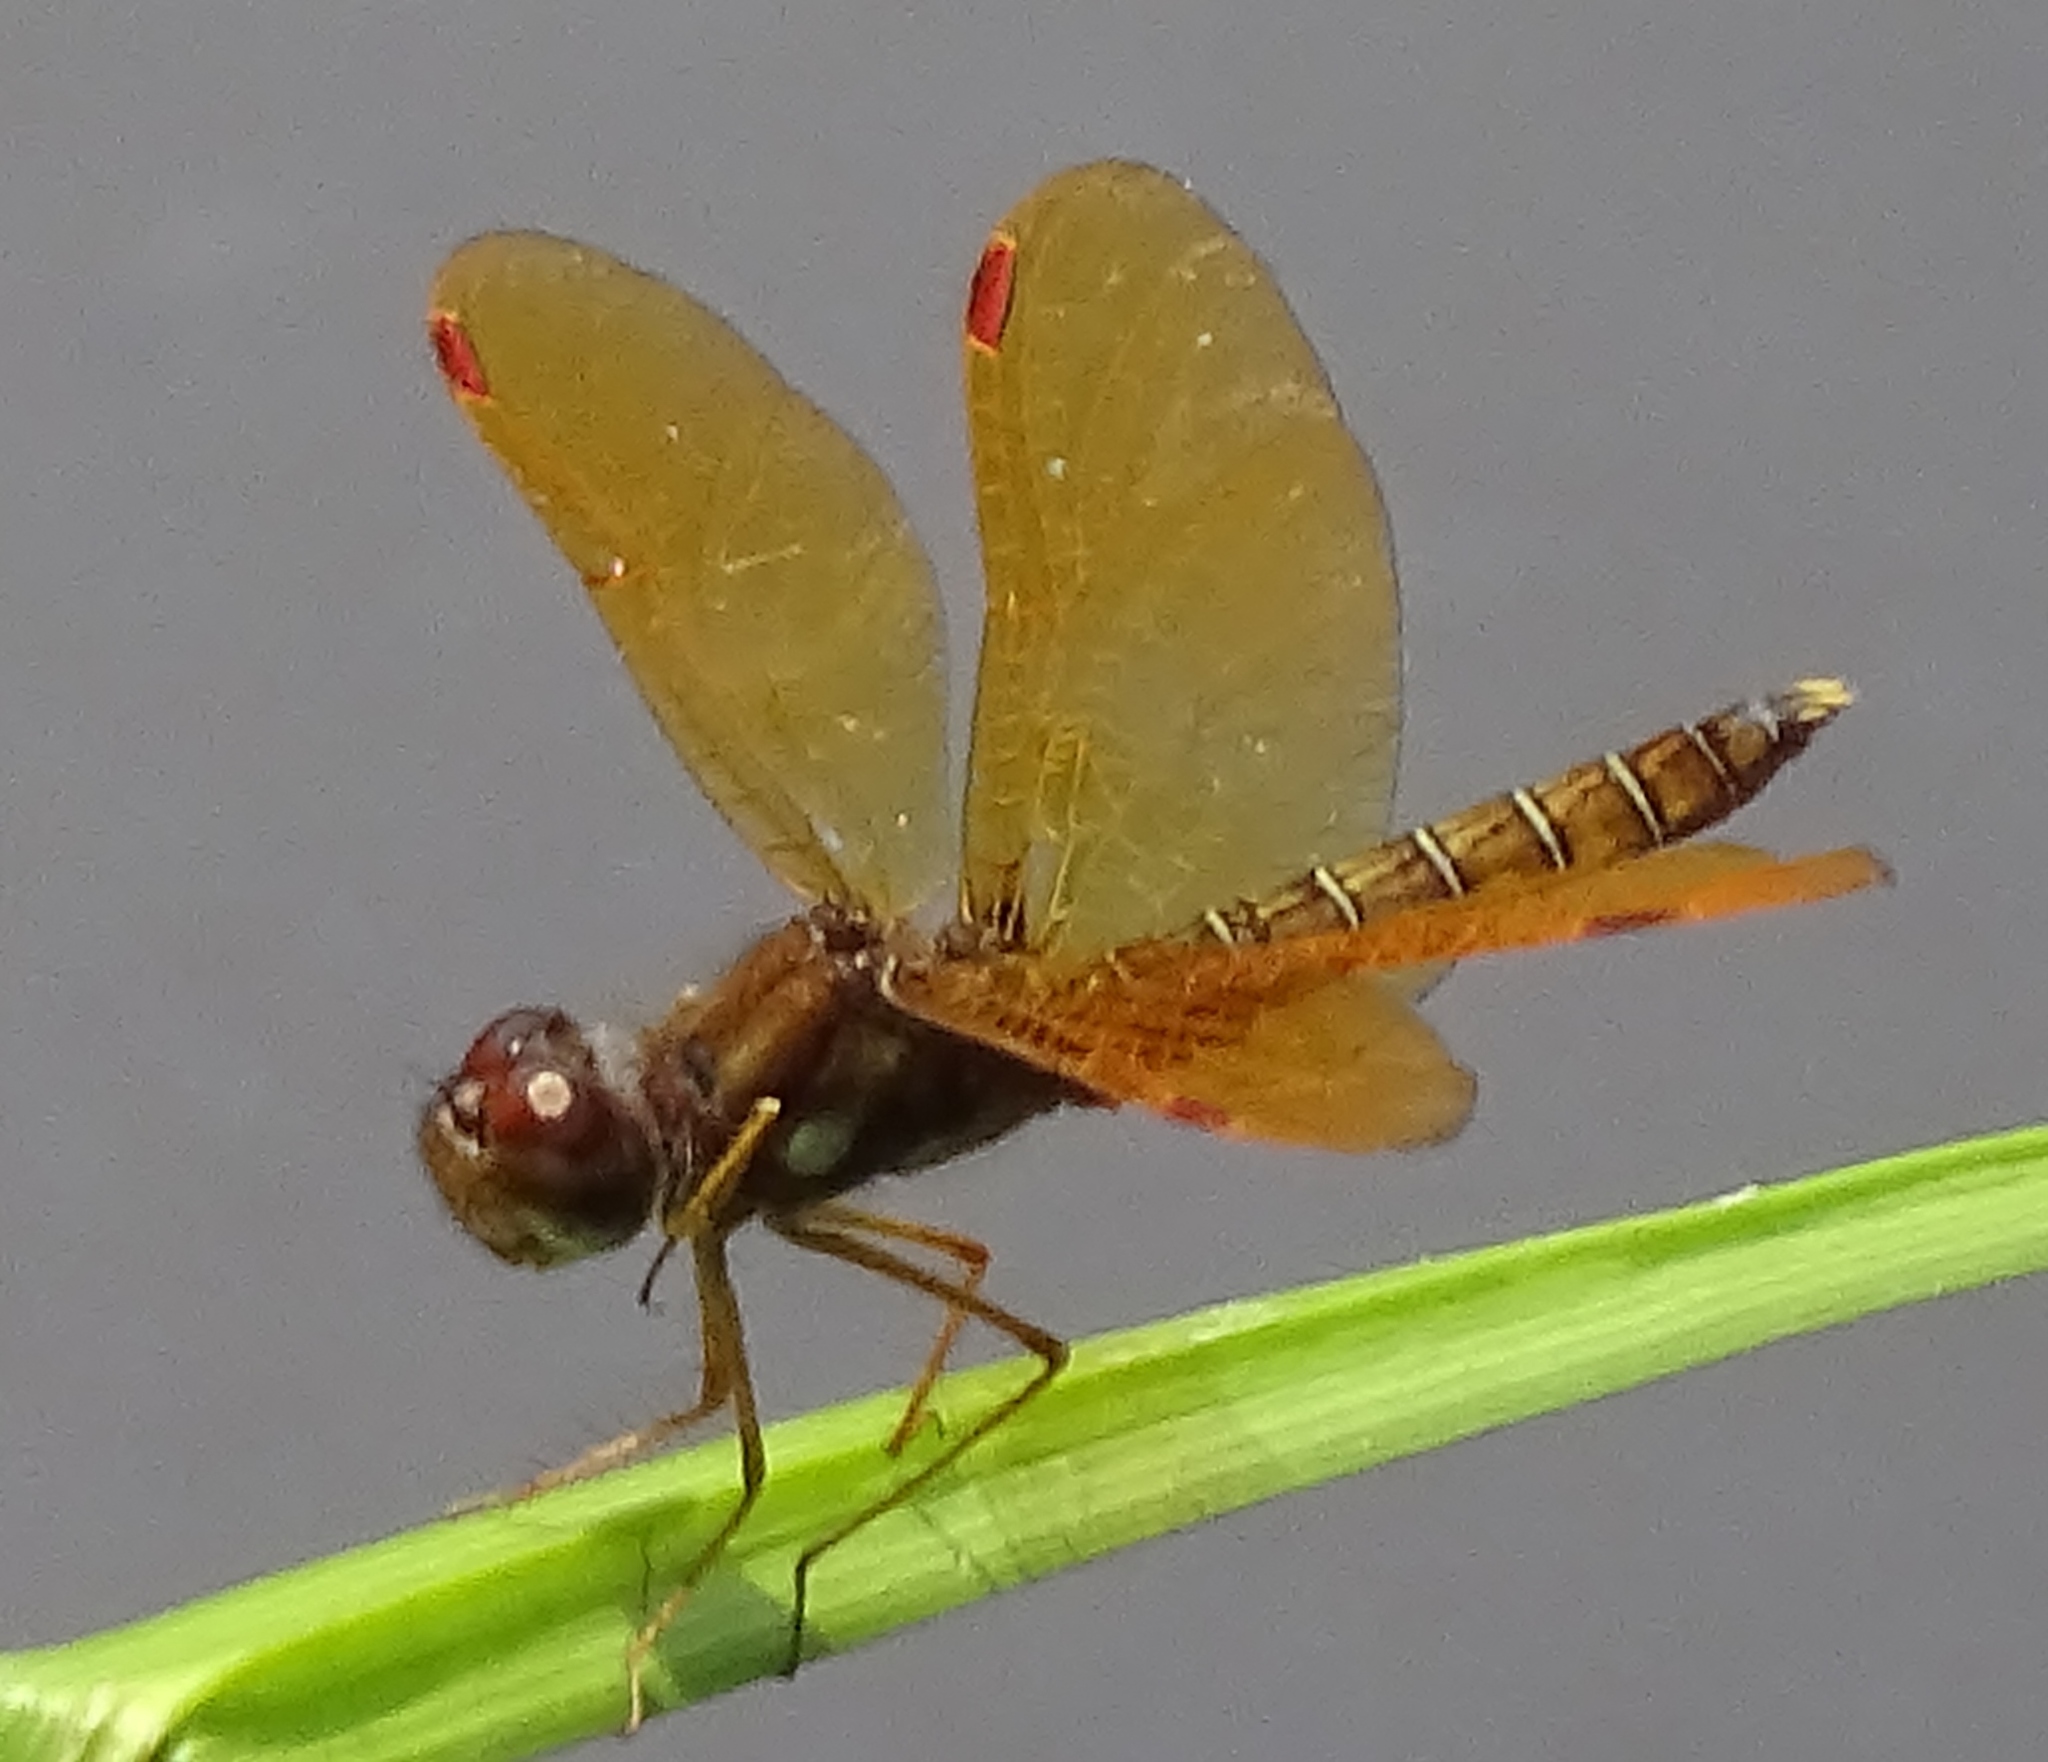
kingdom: Animalia
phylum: Arthropoda
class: Insecta
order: Odonata
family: Libellulidae
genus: Perithemis
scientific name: Perithemis tenera
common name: Eastern amberwing
